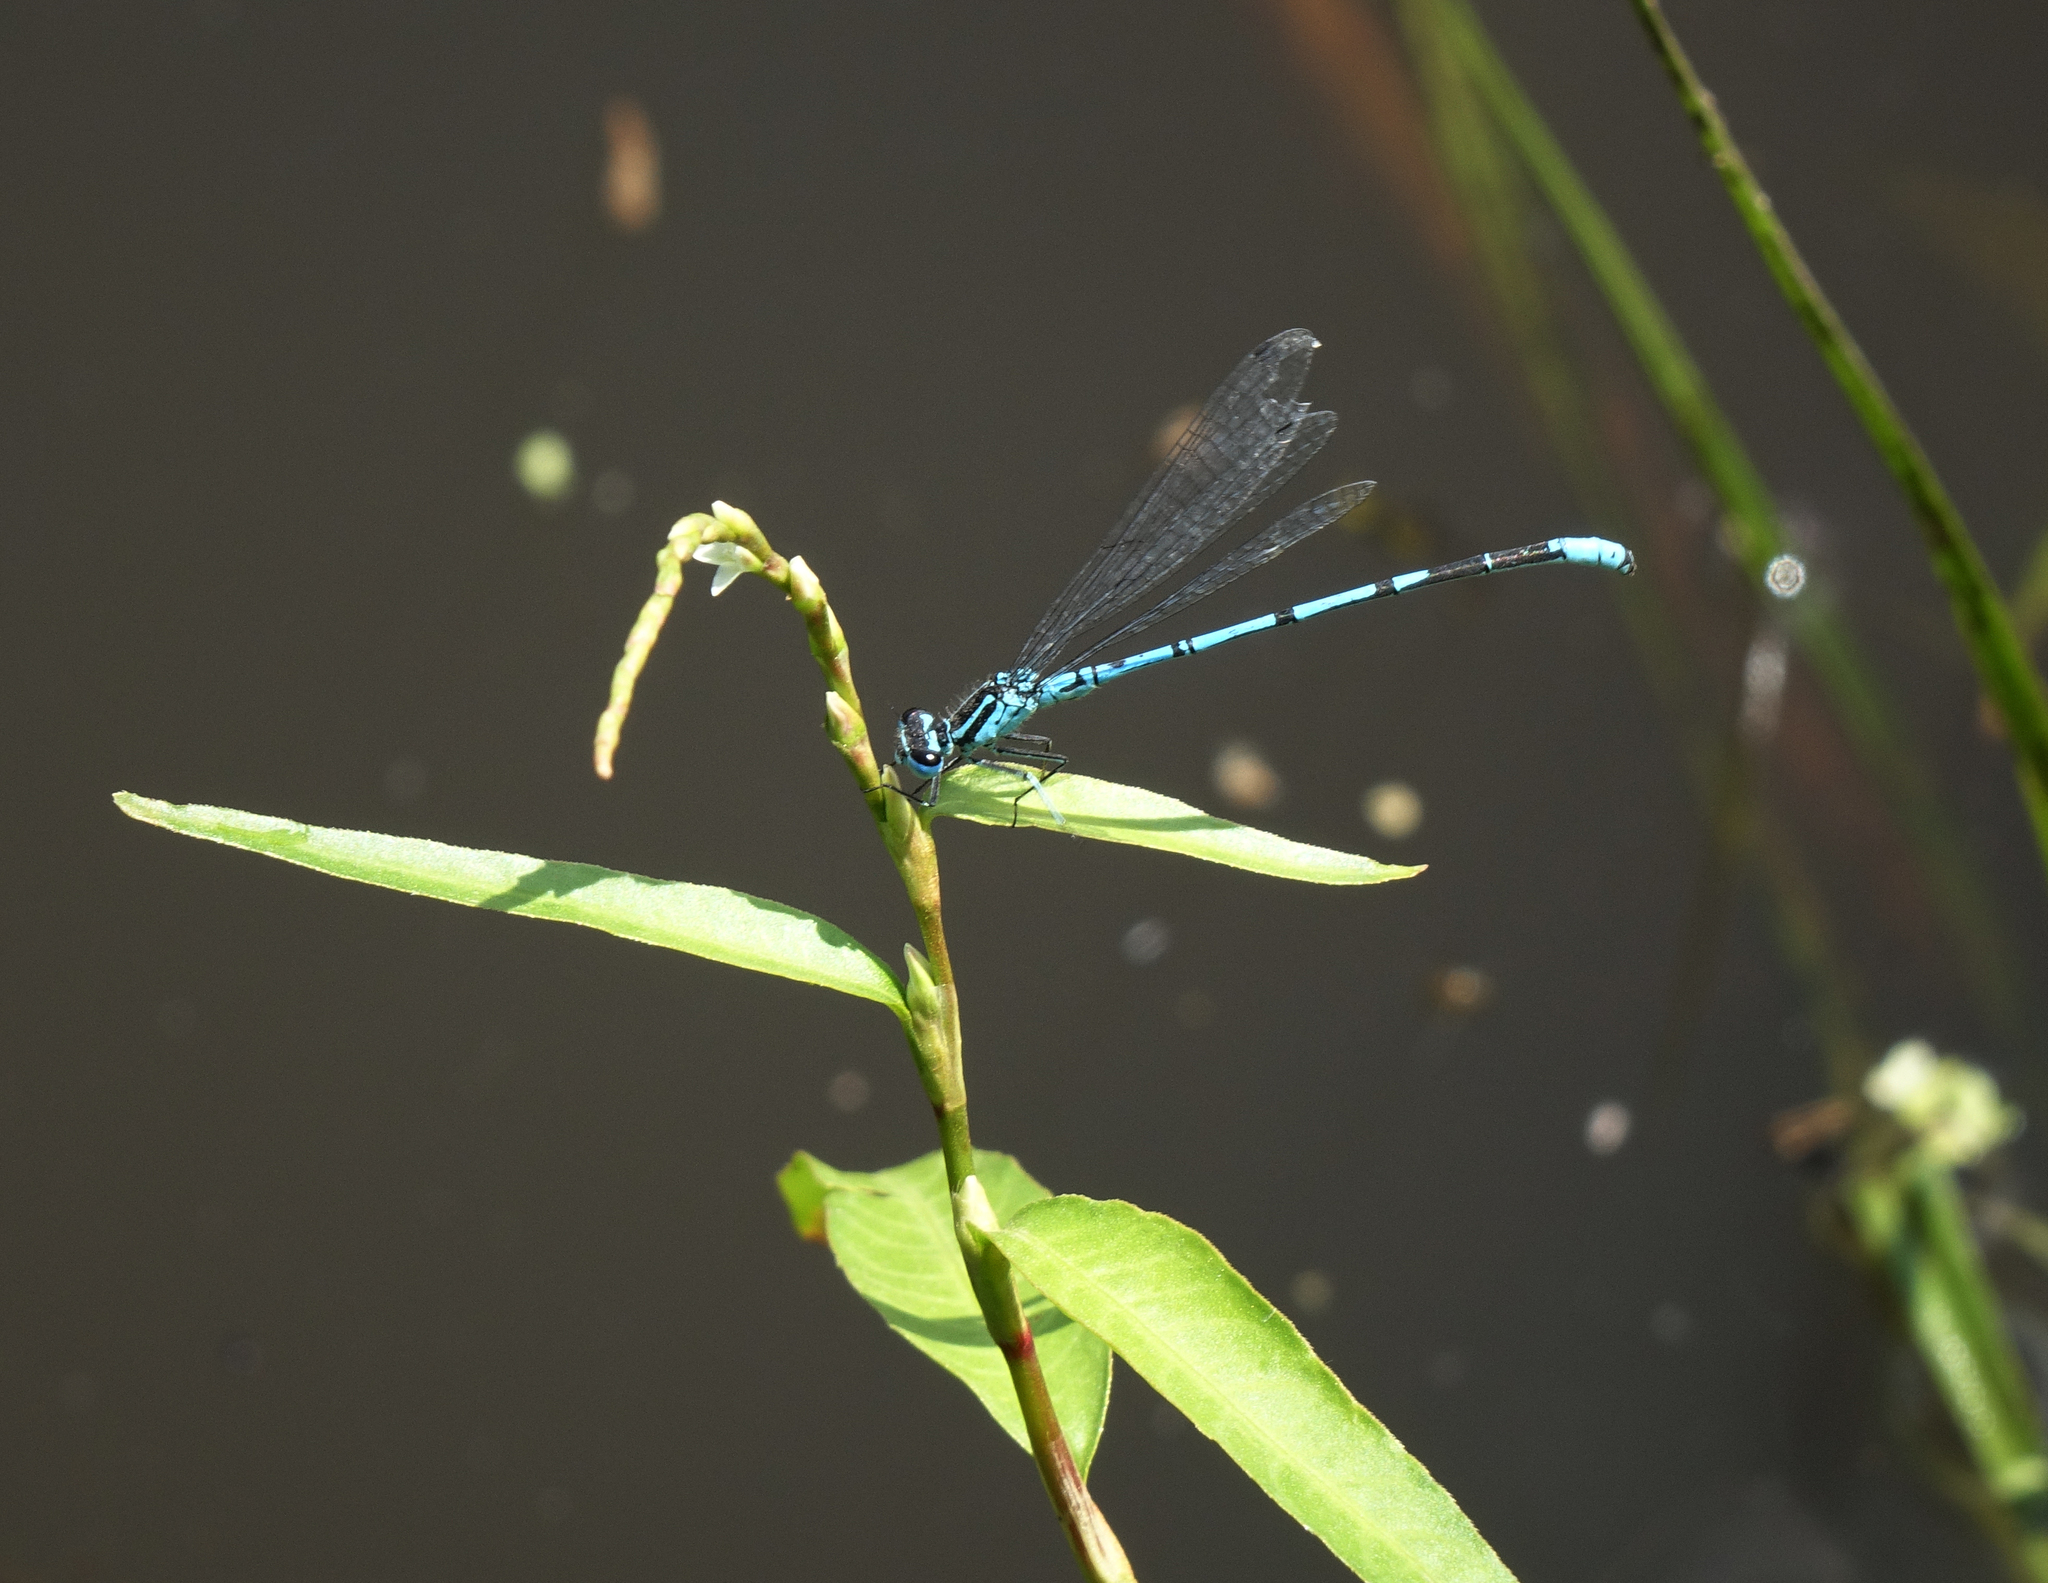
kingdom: Animalia
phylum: Arthropoda
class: Insecta
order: Odonata
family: Coenagrionidae
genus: Coenagrion
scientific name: Coenagrion puella
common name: Azure damselfly
